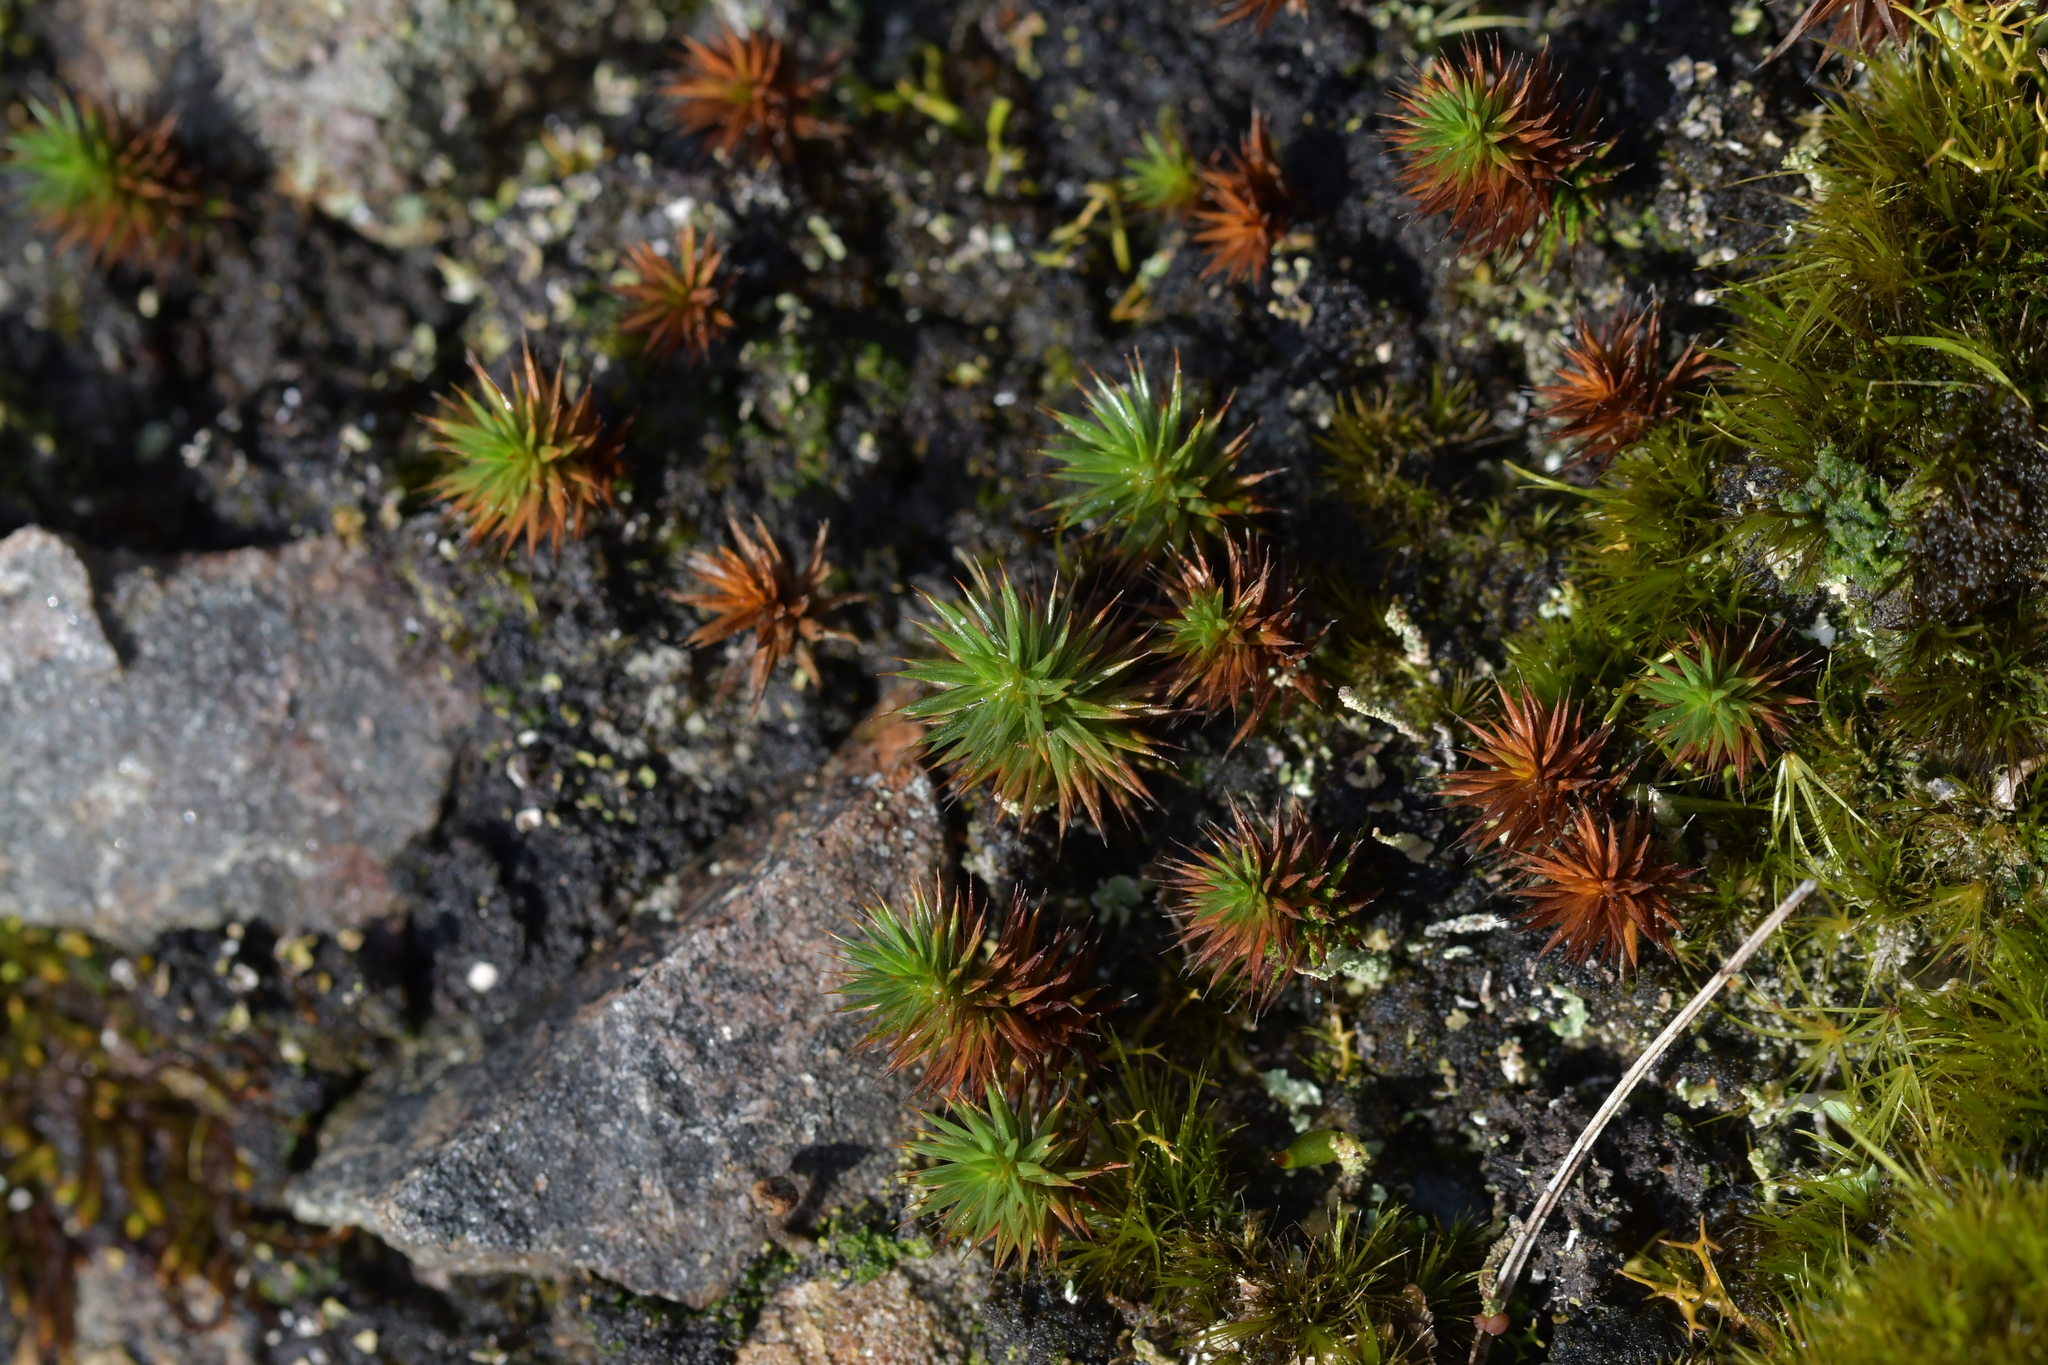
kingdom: Plantae
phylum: Bryophyta
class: Polytrichopsida
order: Polytrichales
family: Polytrichaceae
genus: Polytrichum
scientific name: Polytrichum juniperinum
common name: Juniper haircap moss
